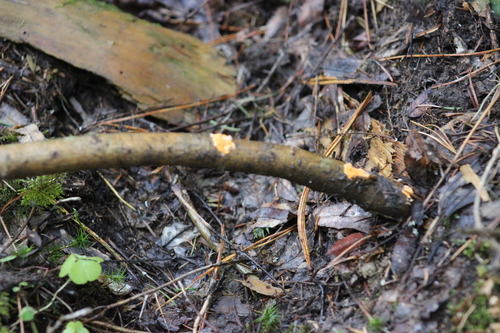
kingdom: Fungi
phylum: Basidiomycota
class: Agaricomycetes
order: Russulales
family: Peniophoraceae
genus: Peniophora
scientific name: Peniophora
